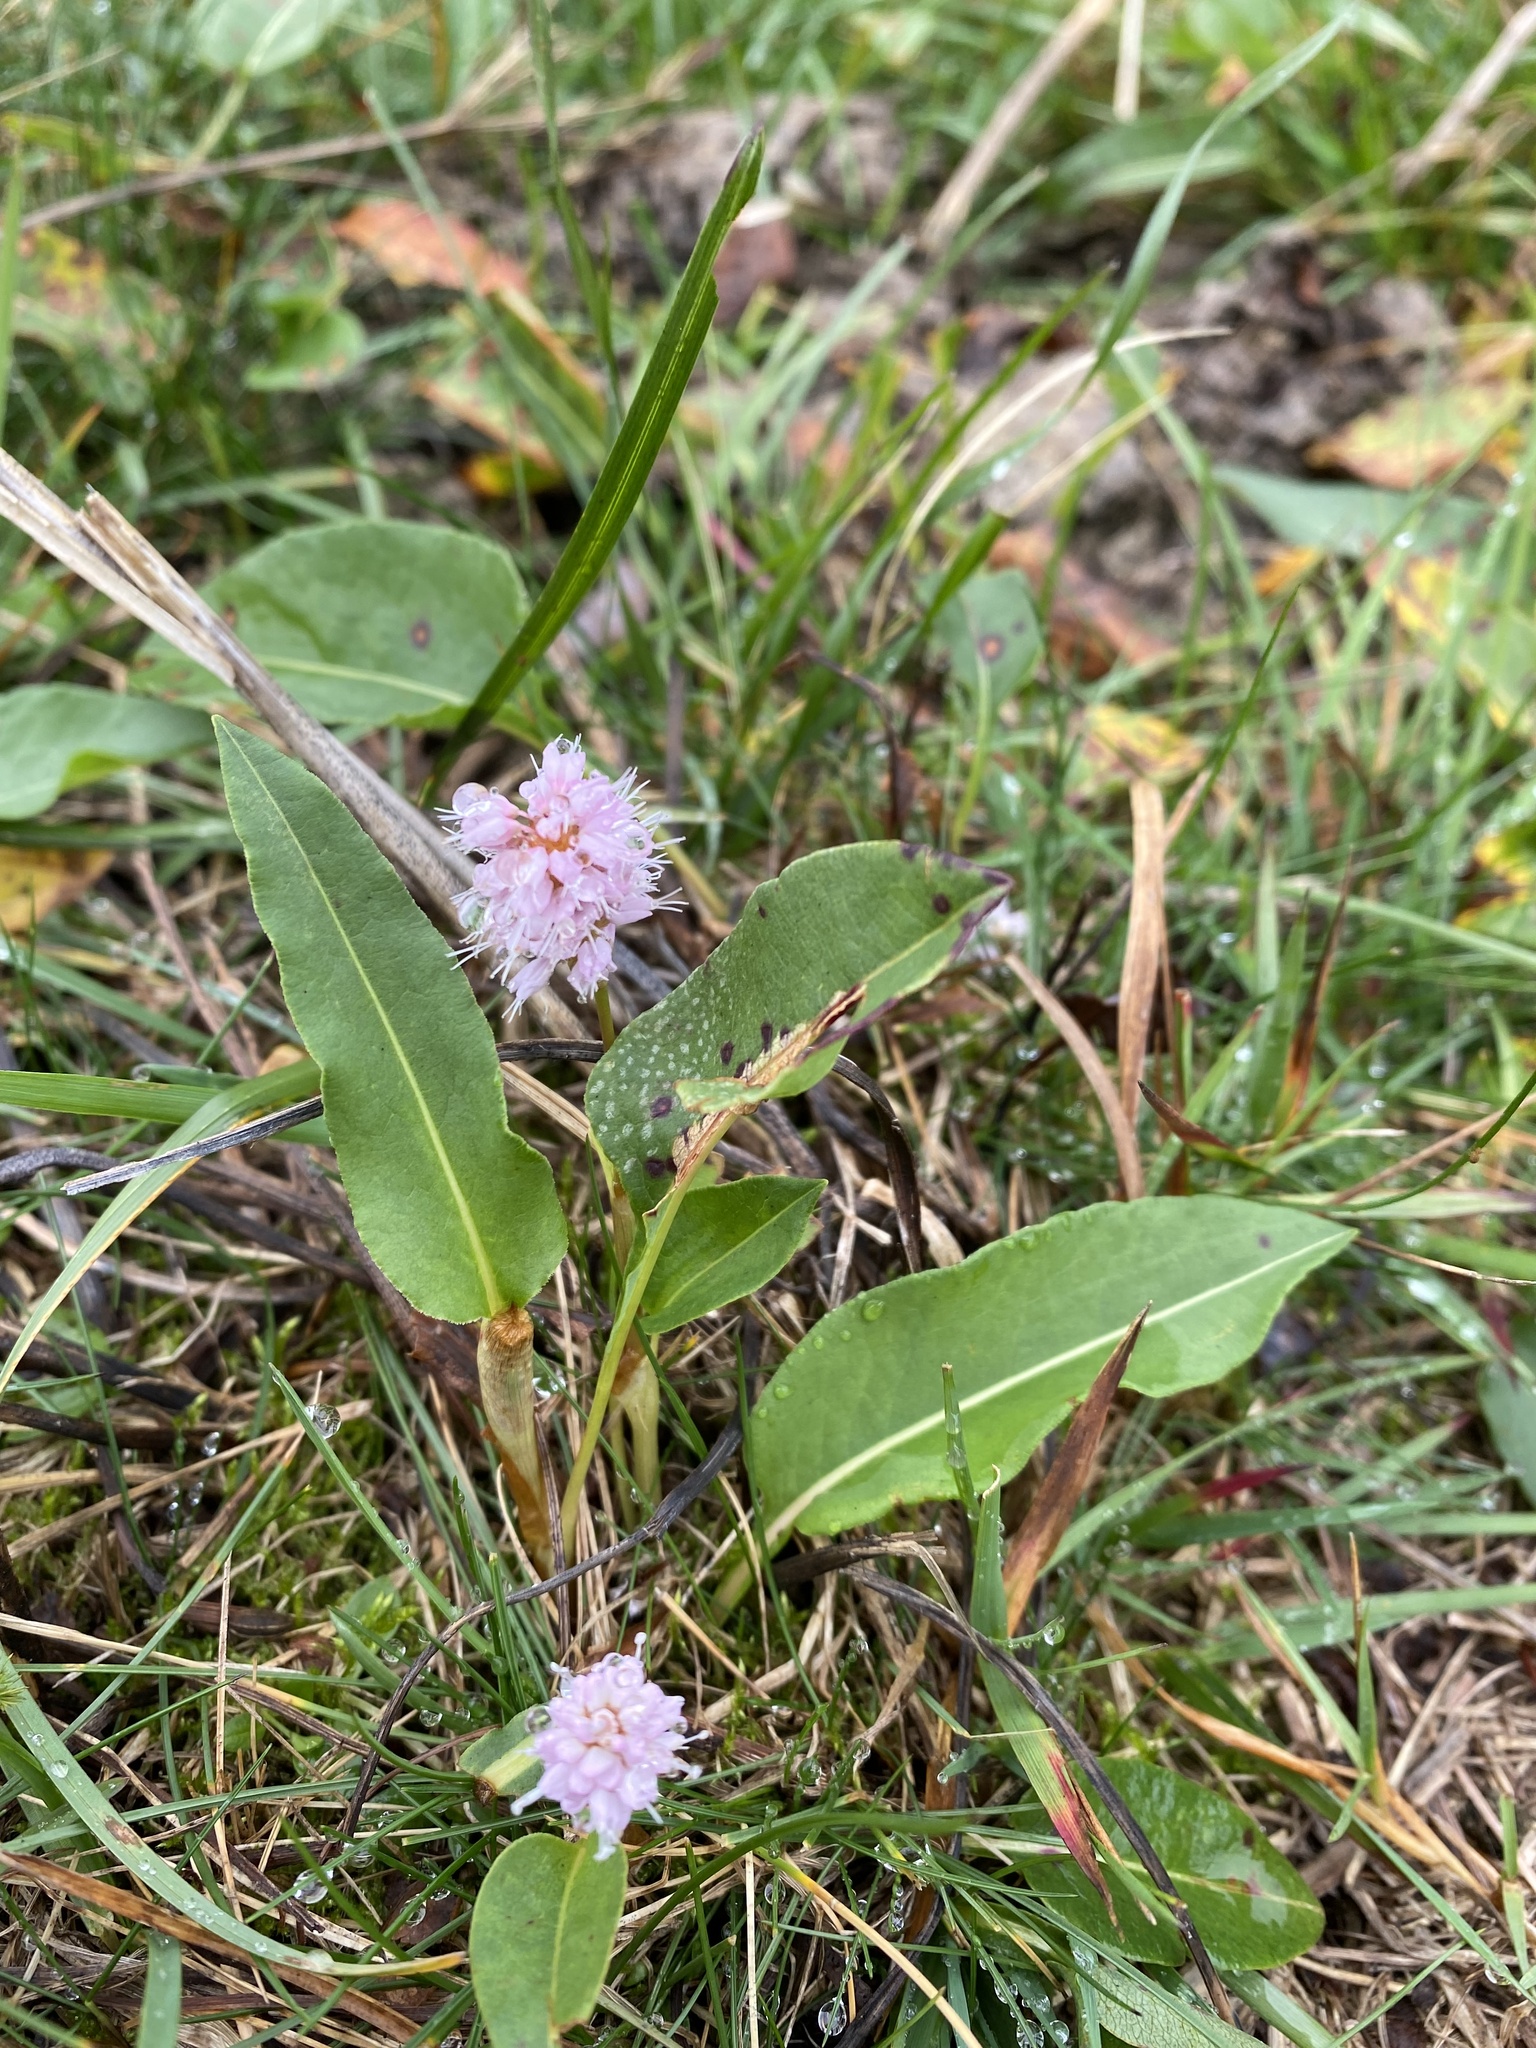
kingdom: Plantae
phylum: Tracheophyta
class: Magnoliopsida
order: Caryophyllales
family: Polygonaceae
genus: Bistorta
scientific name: Bistorta officinalis
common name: Common bistort
